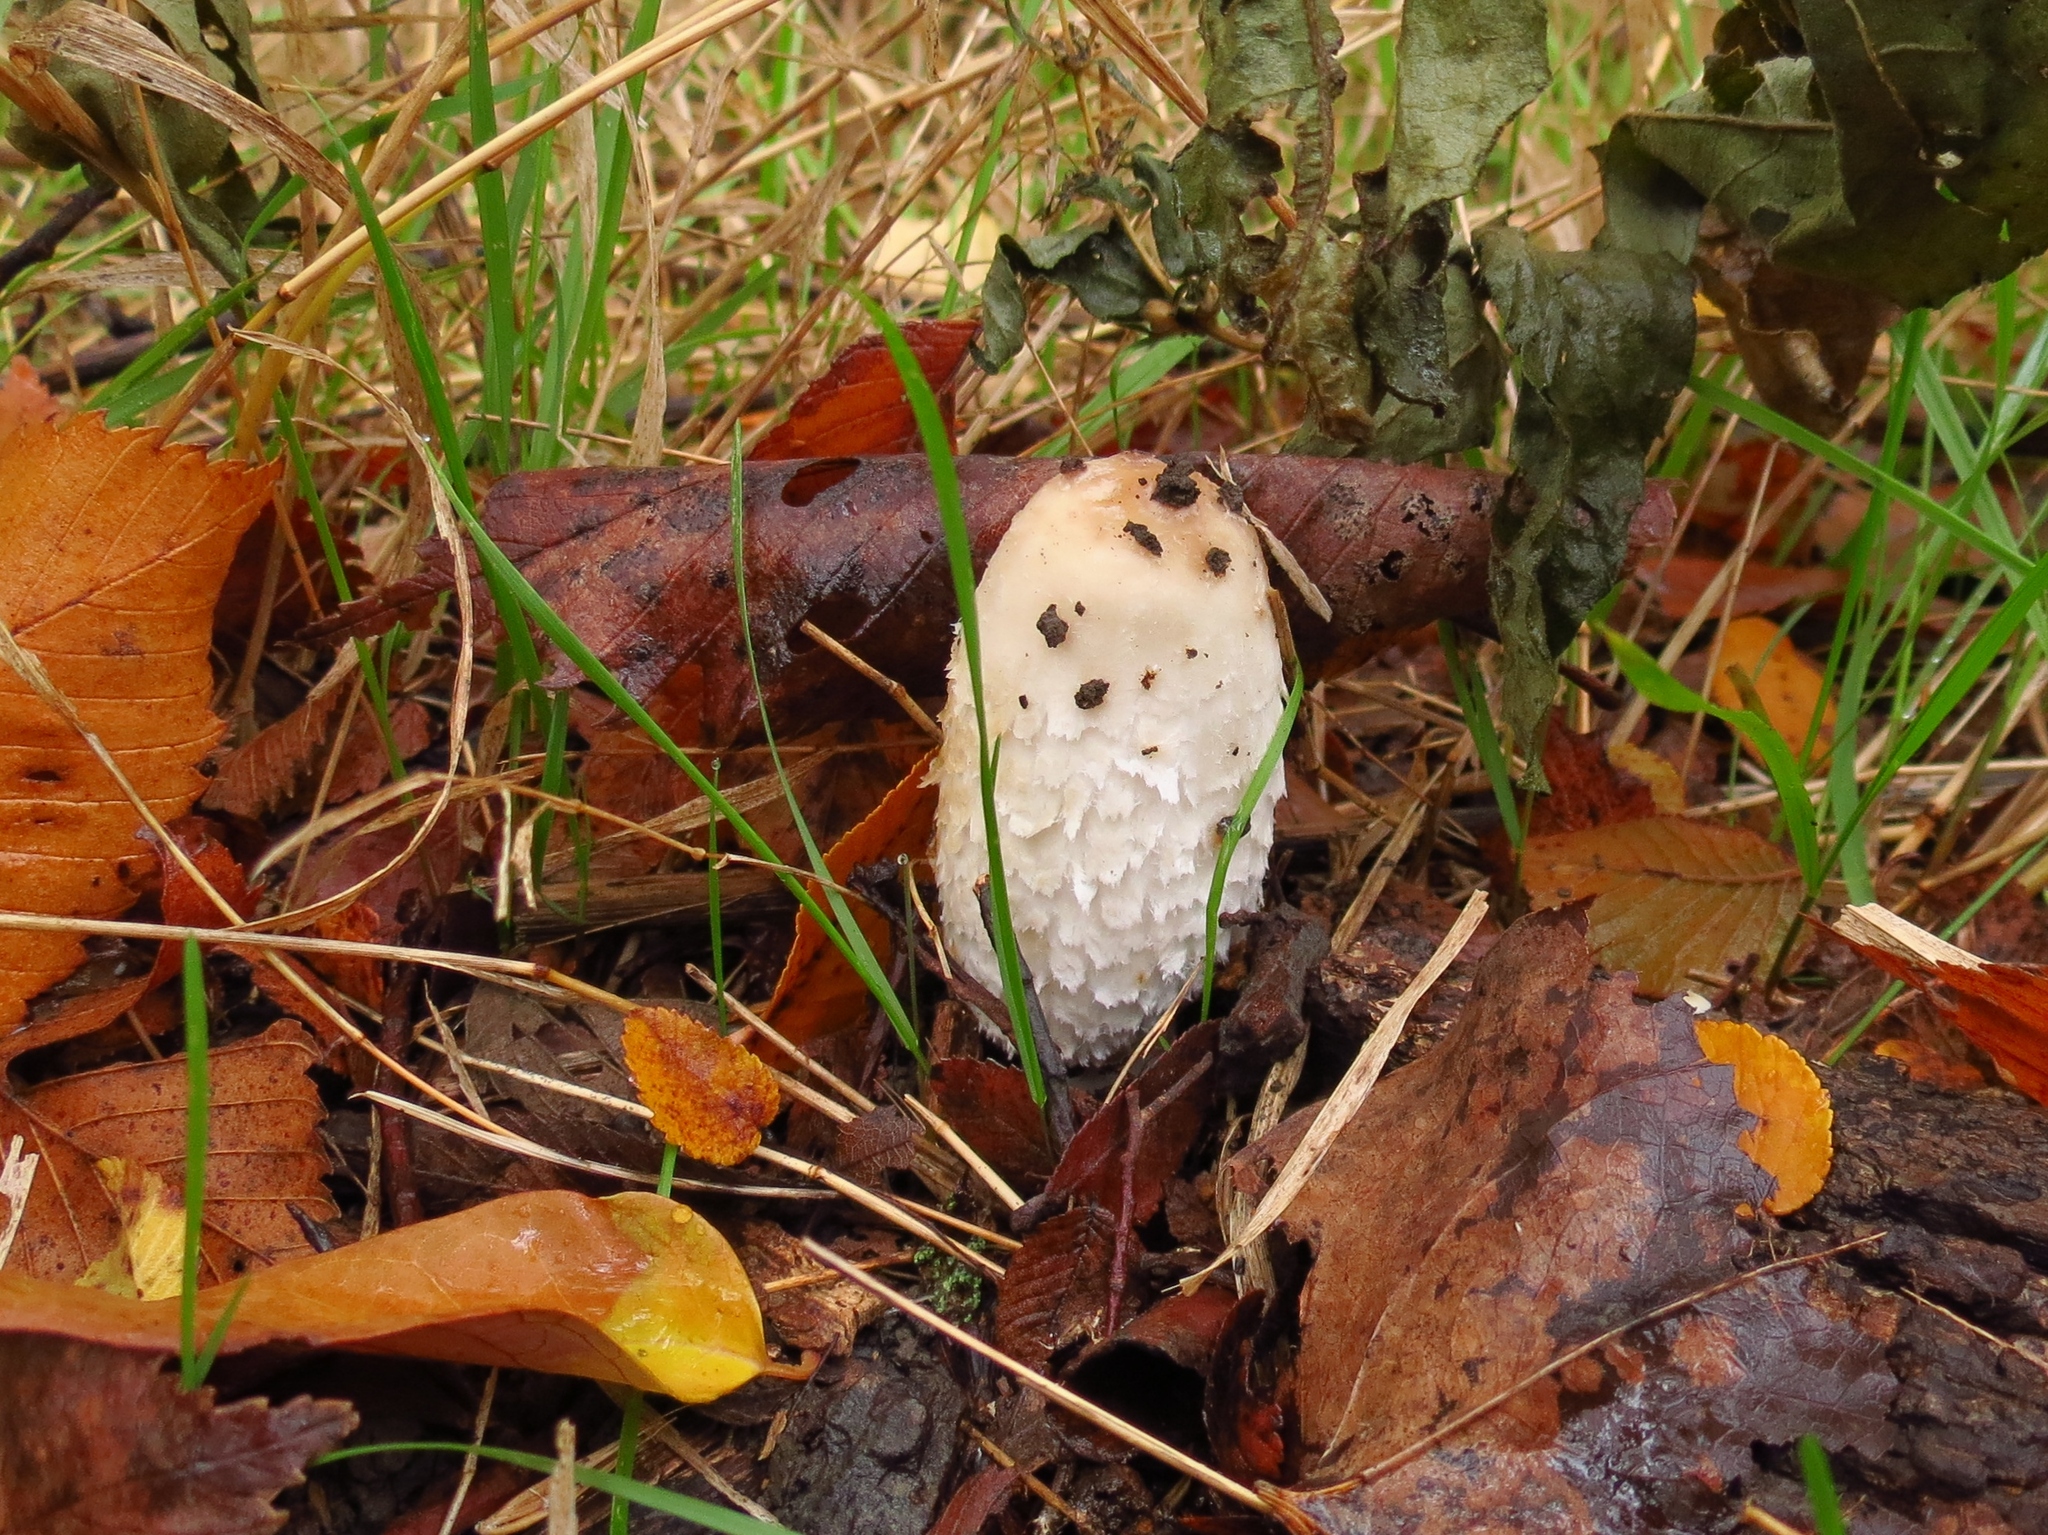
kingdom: Fungi
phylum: Basidiomycota
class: Agaricomycetes
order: Agaricales
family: Agaricaceae
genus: Coprinus
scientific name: Coprinus comatus
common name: Lawyer's wig
